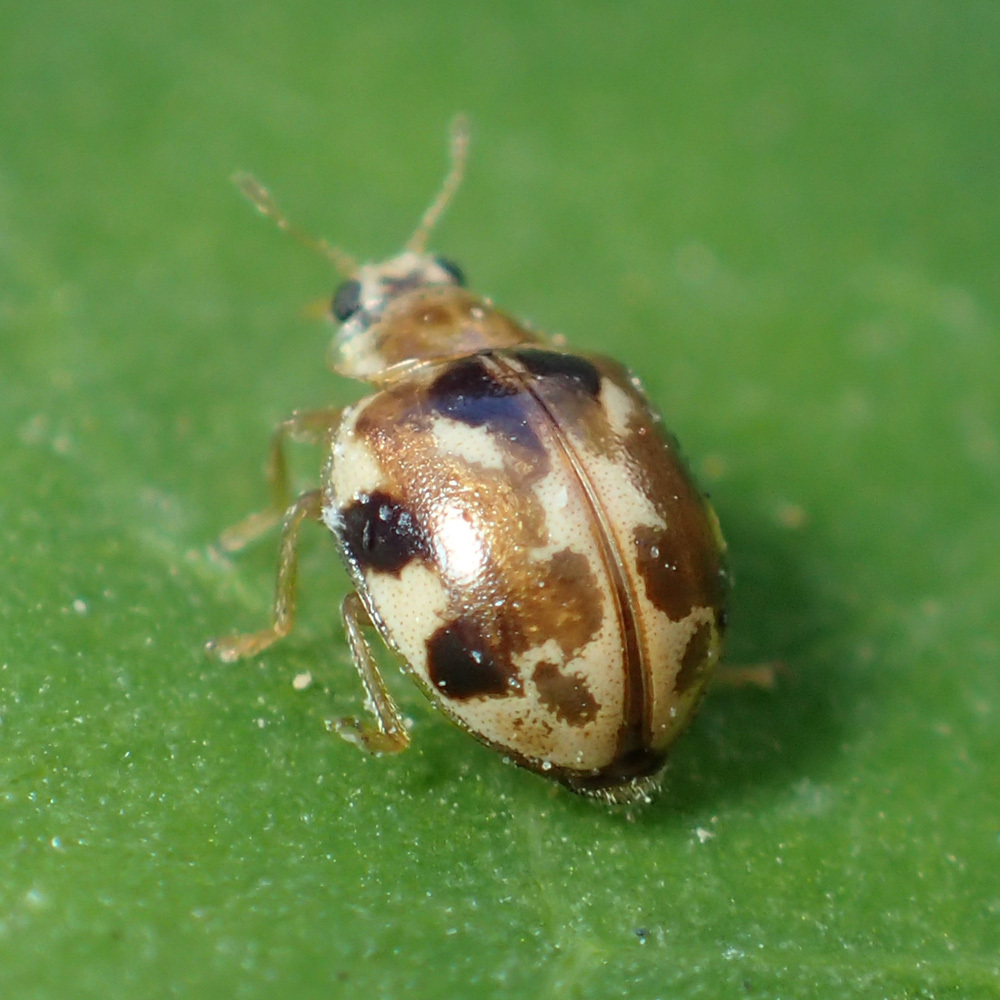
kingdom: Animalia
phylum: Arthropoda
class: Insecta
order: Coleoptera
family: Coccinellidae
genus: Psyllobora
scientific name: Psyllobora vigintimaculata
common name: Ladybird beetle
